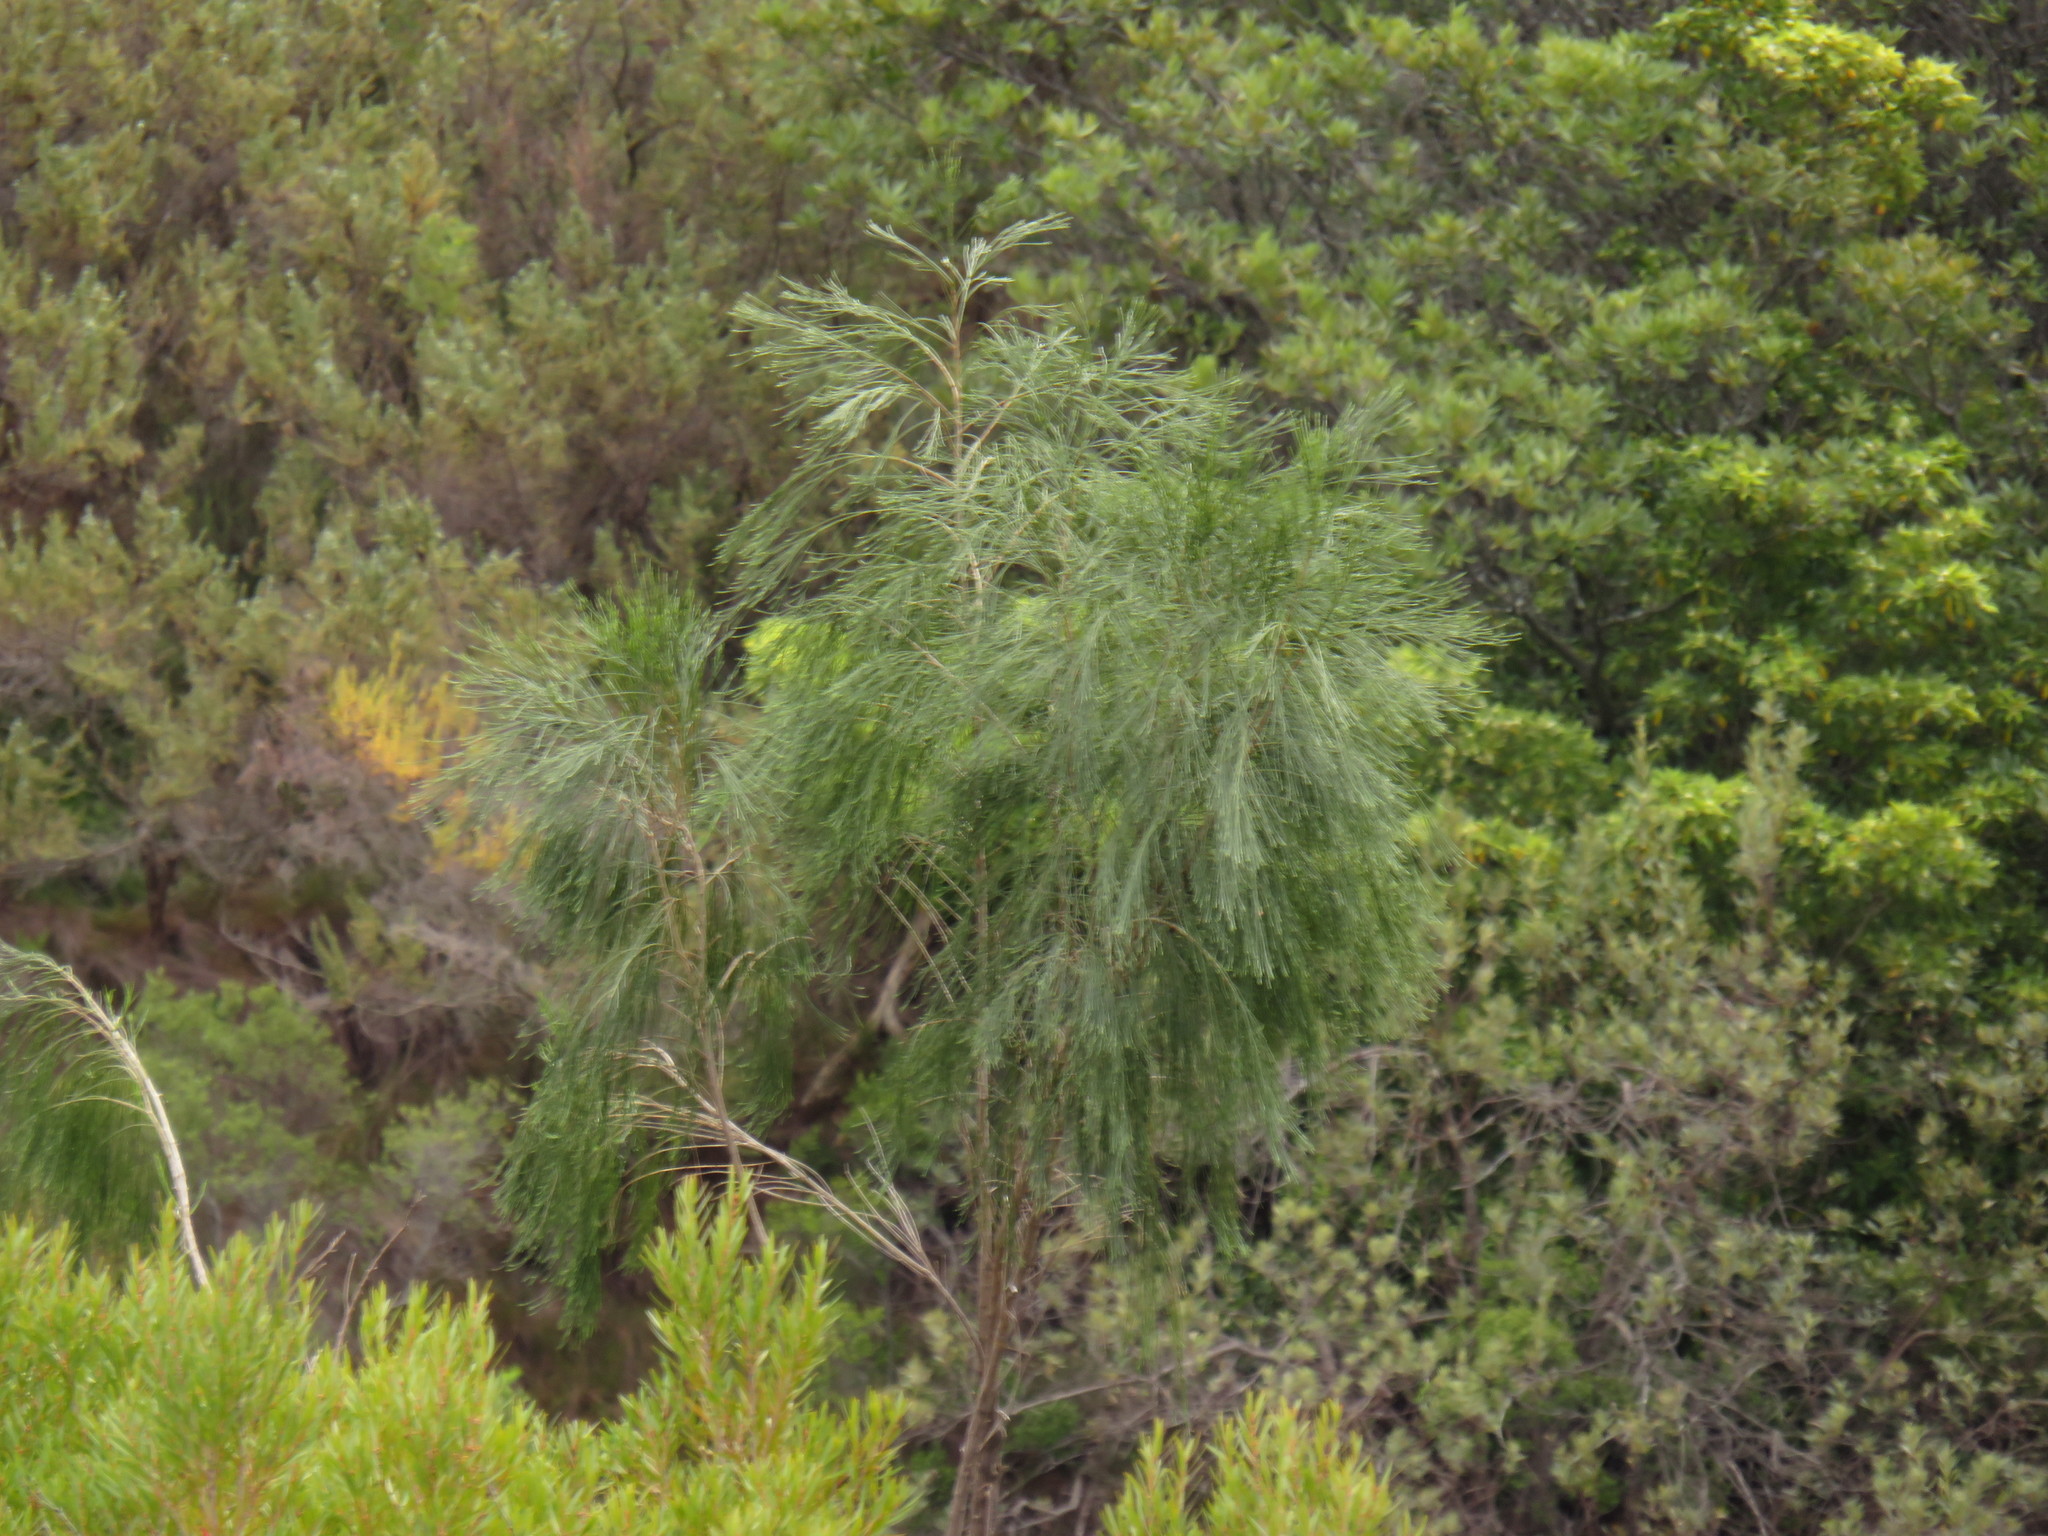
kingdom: Plantae
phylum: Tracheophyta
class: Magnoliopsida
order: Fabales
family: Fabaceae
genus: Psoralea
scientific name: Psoralea fleta
